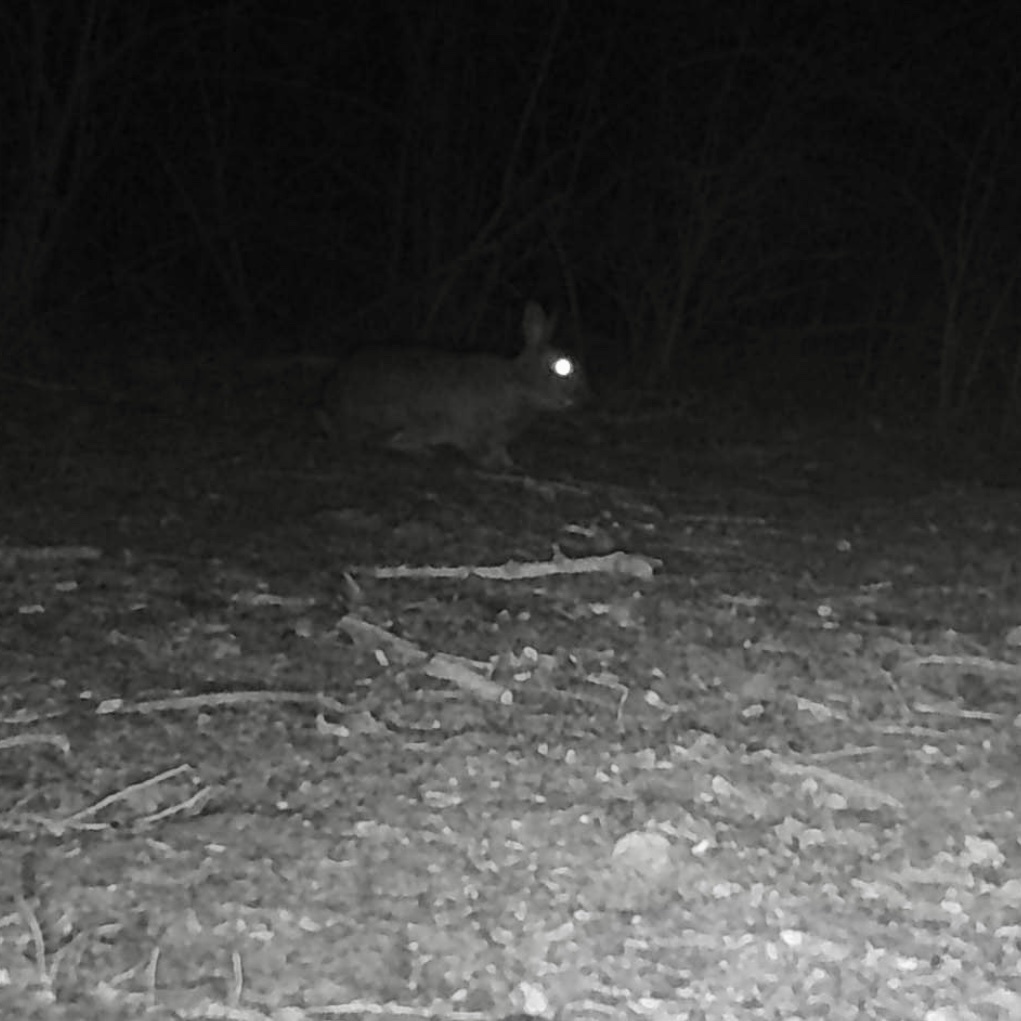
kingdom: Animalia
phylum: Chordata
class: Mammalia
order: Lagomorpha
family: Leporidae
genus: Oryctolagus
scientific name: Oryctolagus cuniculus
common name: European rabbit
